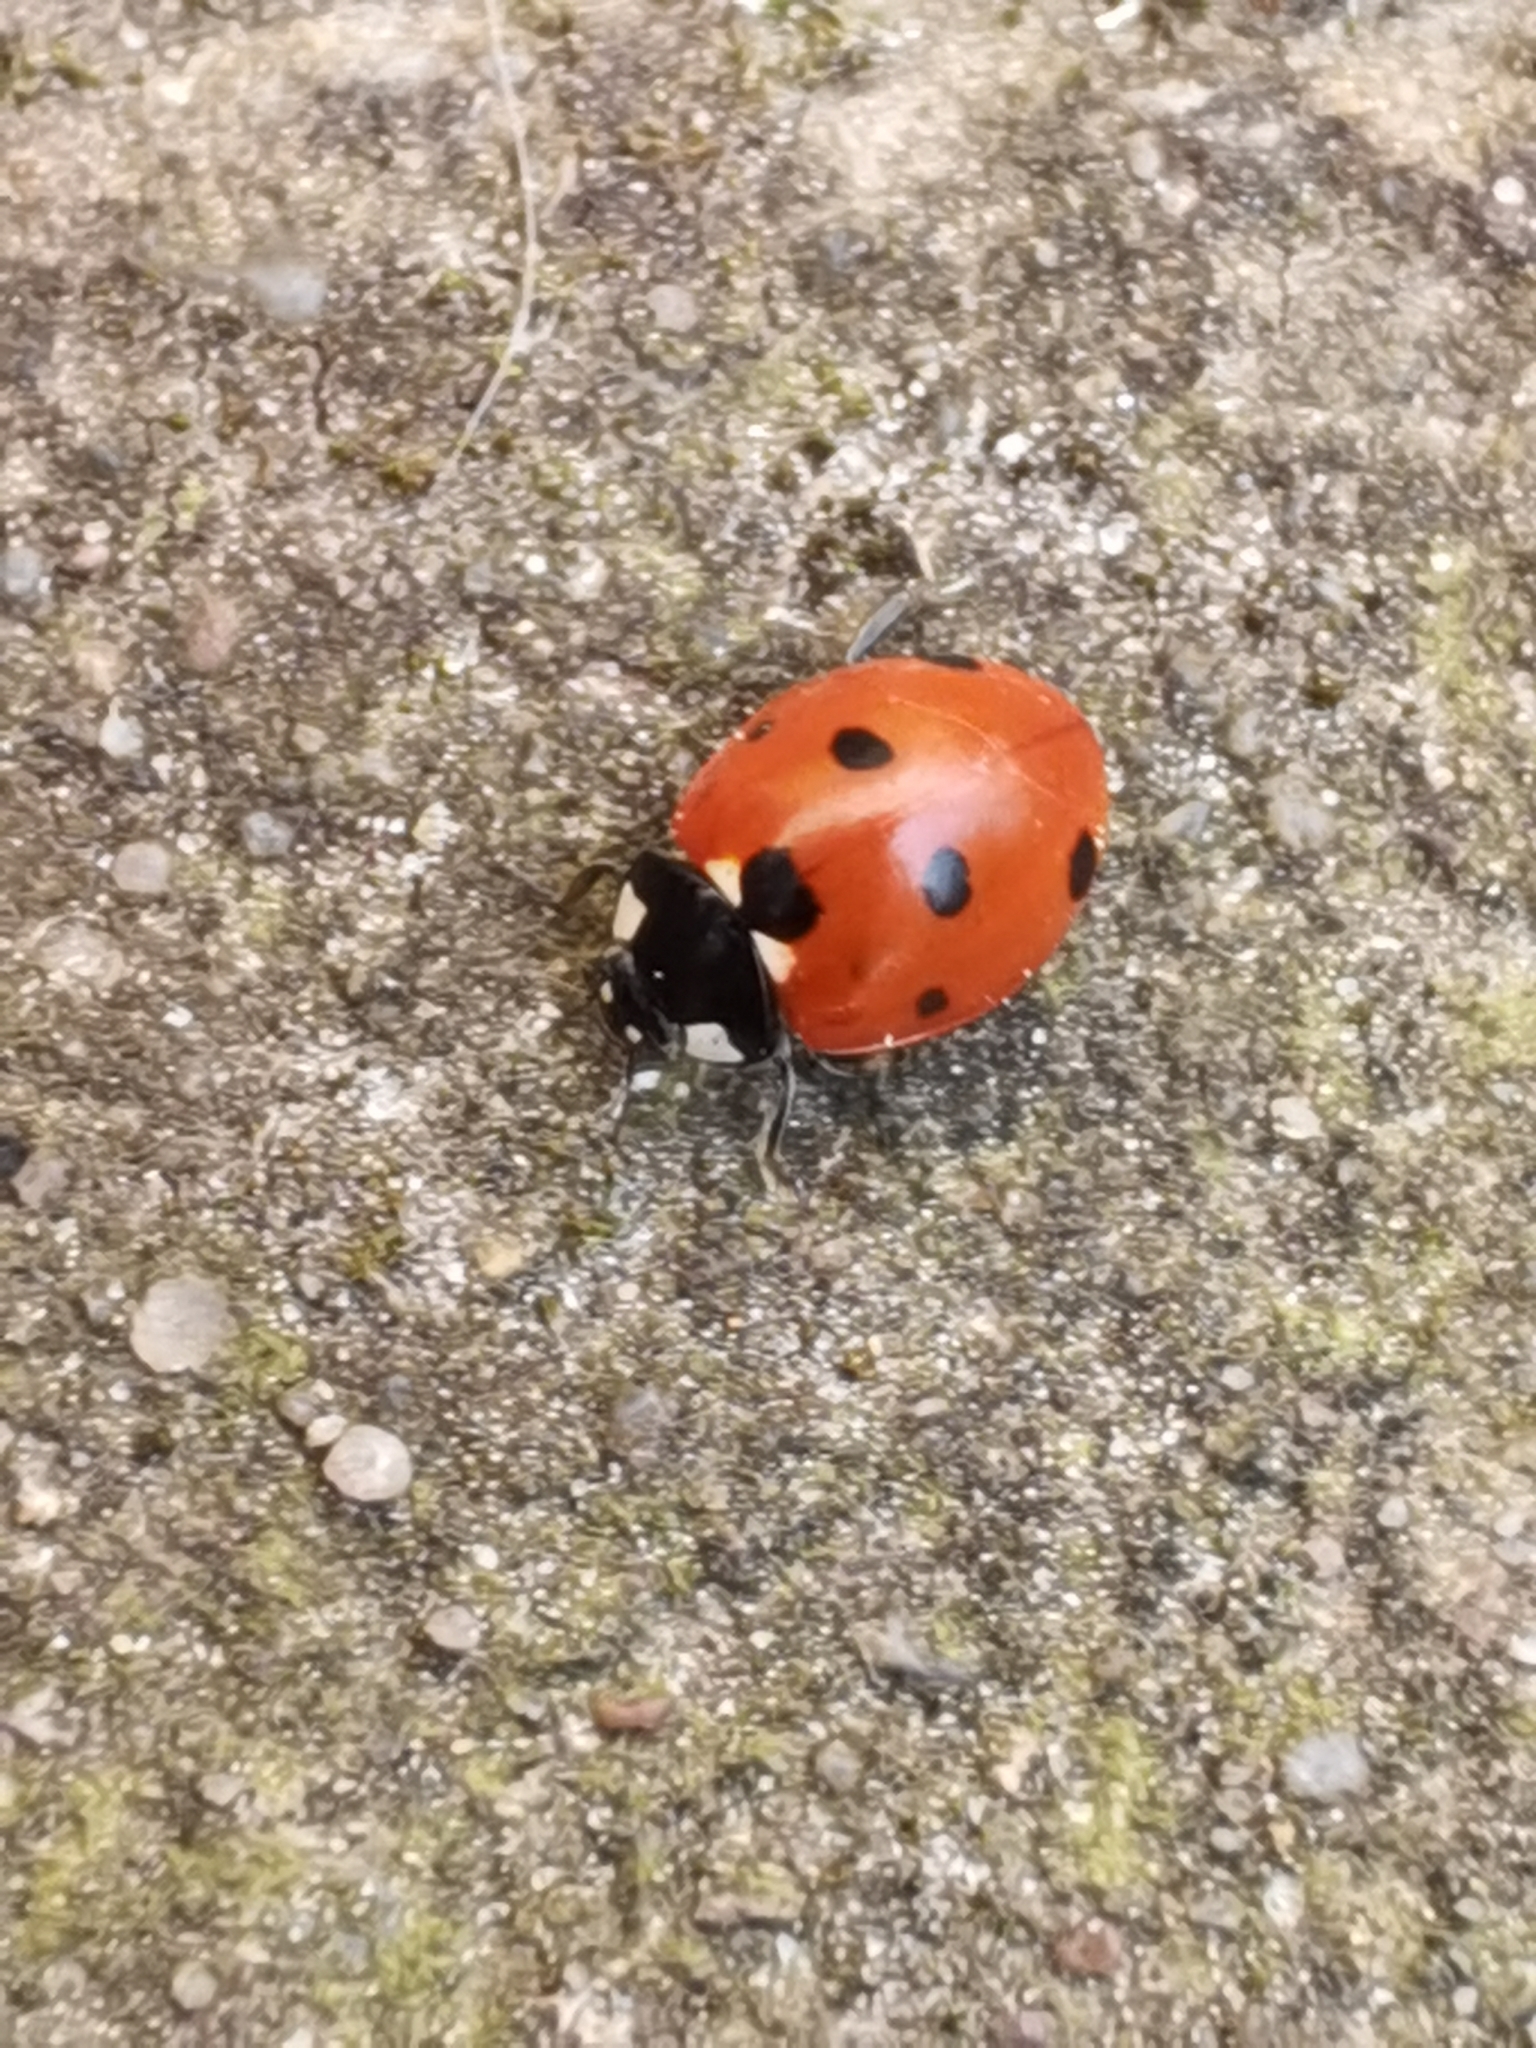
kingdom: Animalia
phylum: Arthropoda
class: Insecta
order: Coleoptera
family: Coccinellidae
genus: Coccinella
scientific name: Coccinella septempunctata
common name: Sevenspotted lady beetle
